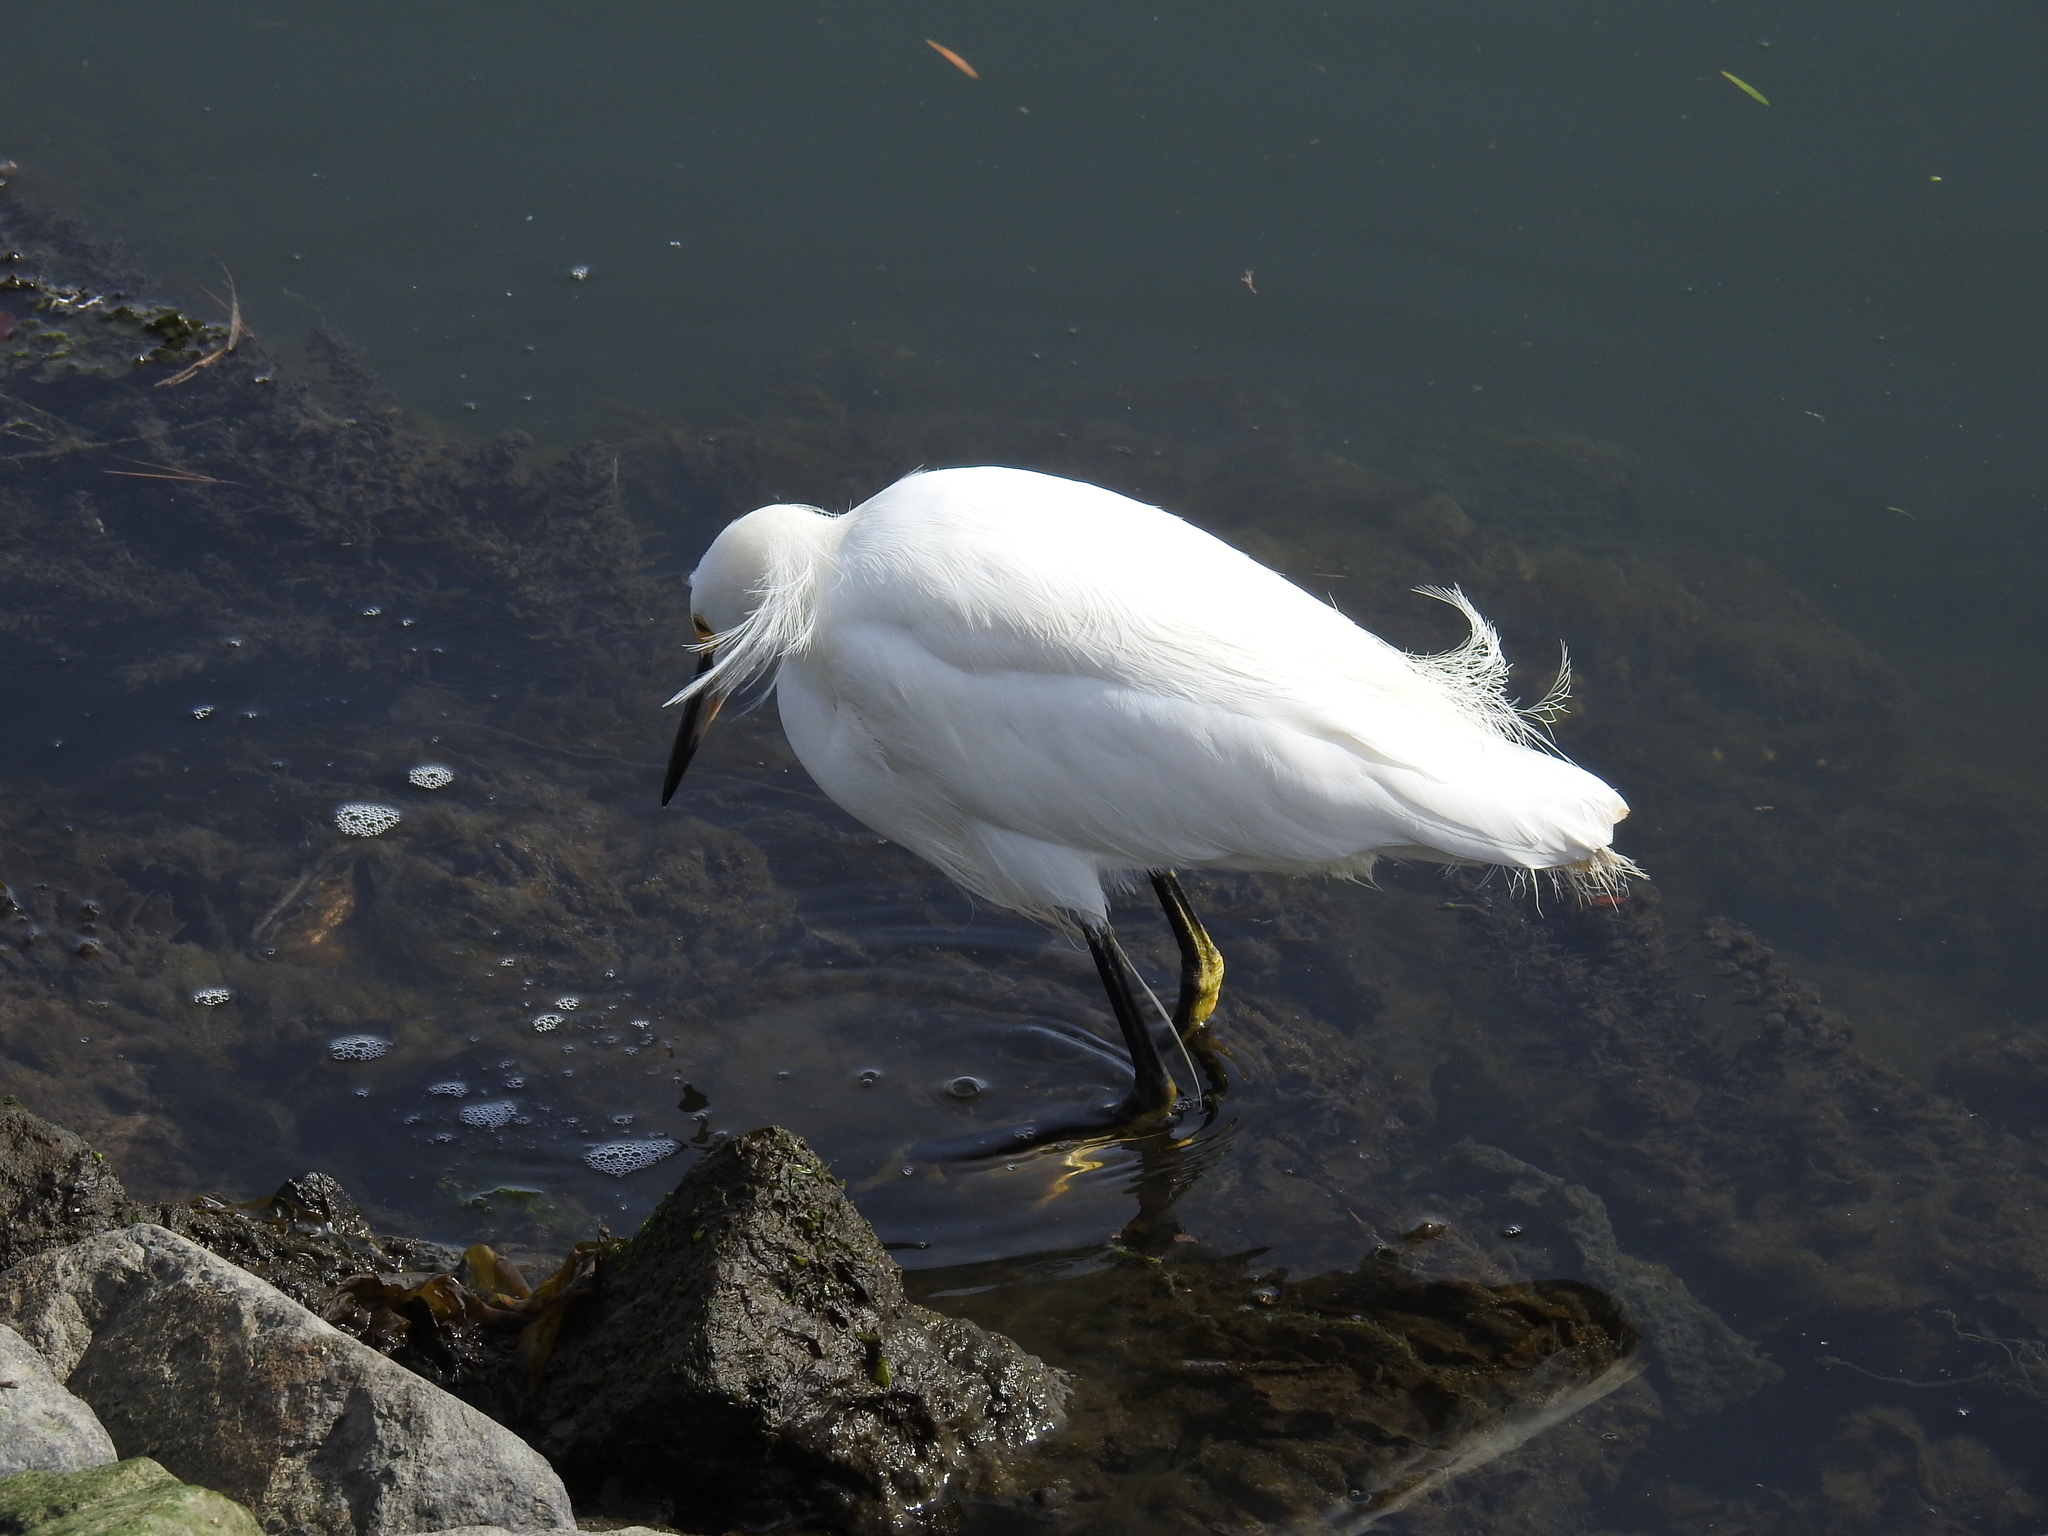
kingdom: Animalia
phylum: Chordata
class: Aves
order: Pelecaniformes
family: Ardeidae
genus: Egretta
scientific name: Egretta thula
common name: Snowy egret
